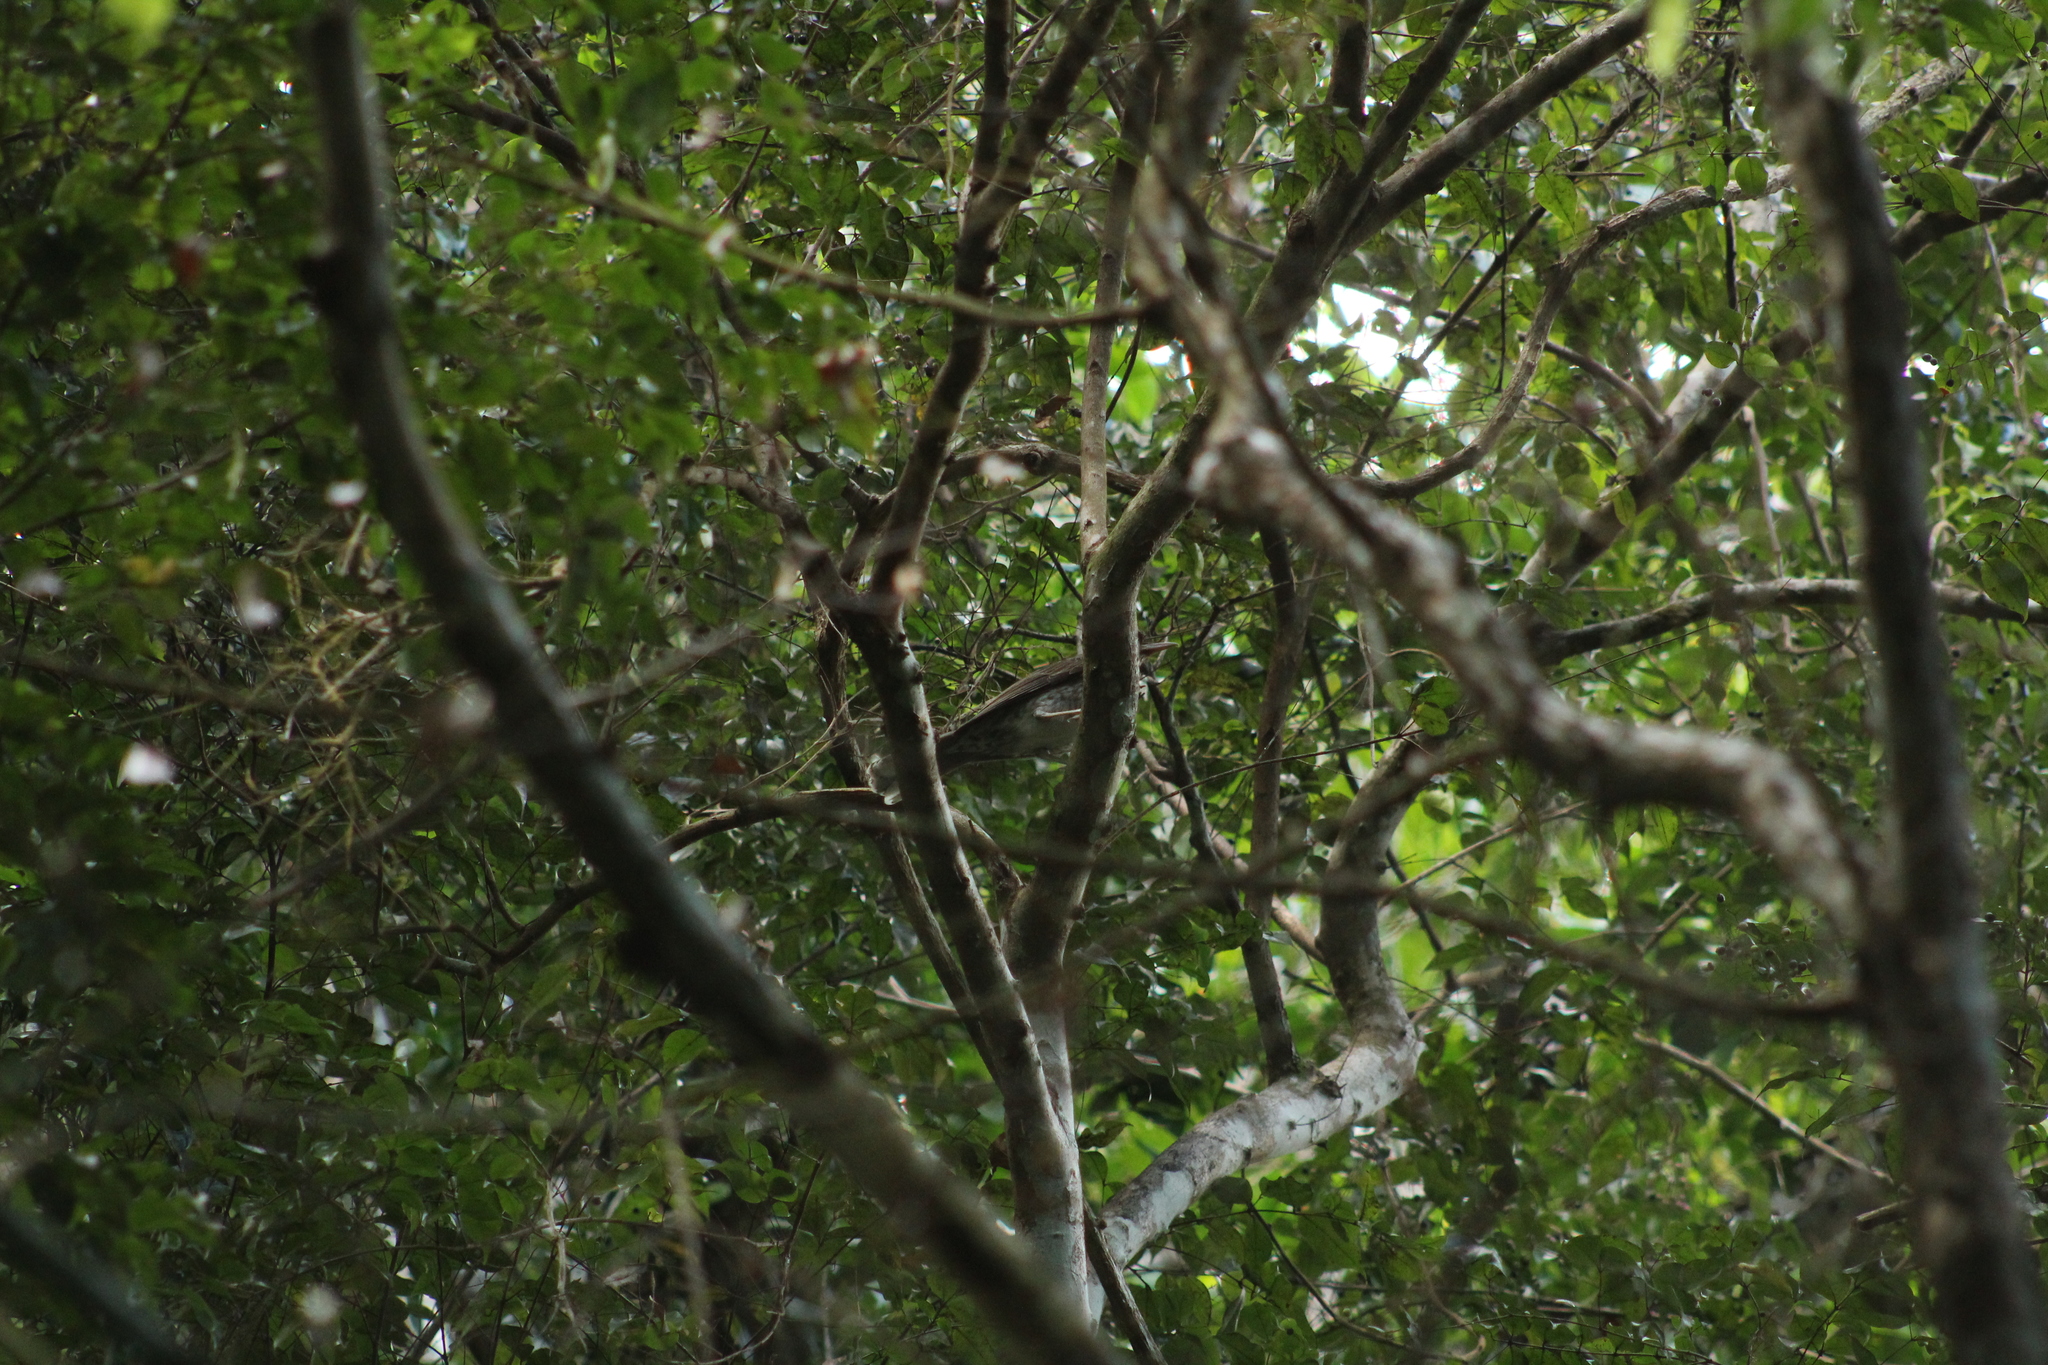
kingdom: Animalia
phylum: Chordata
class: Aves
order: Passeriformes
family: Mimidae
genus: Margarops
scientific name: Margarops fuscatus
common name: Pearly-eyed thrasher
